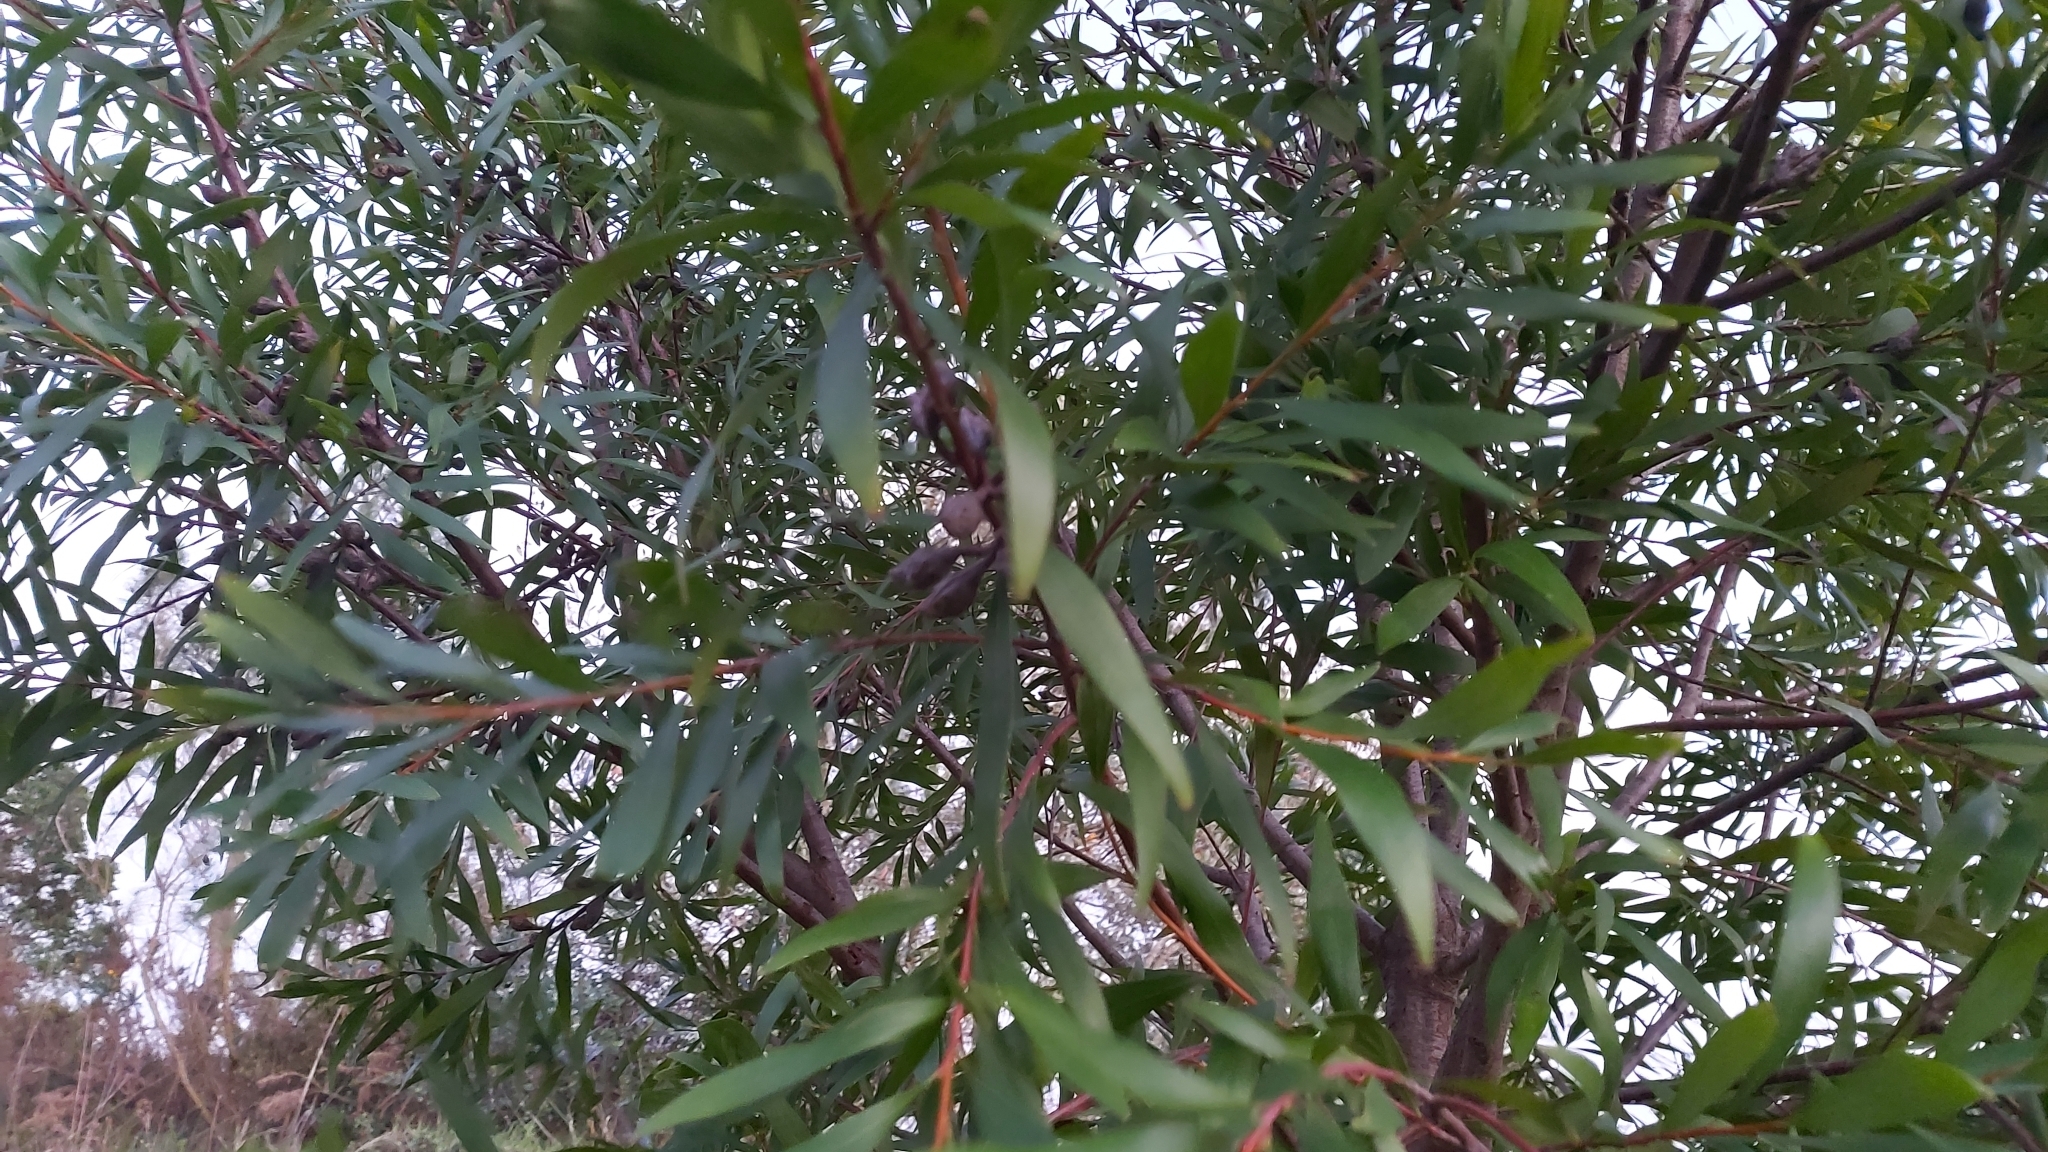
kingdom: Plantae
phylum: Tracheophyta
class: Magnoliopsida
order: Proteales
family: Proteaceae
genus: Hakea
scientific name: Hakea salicifolia
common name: Willow hakea
